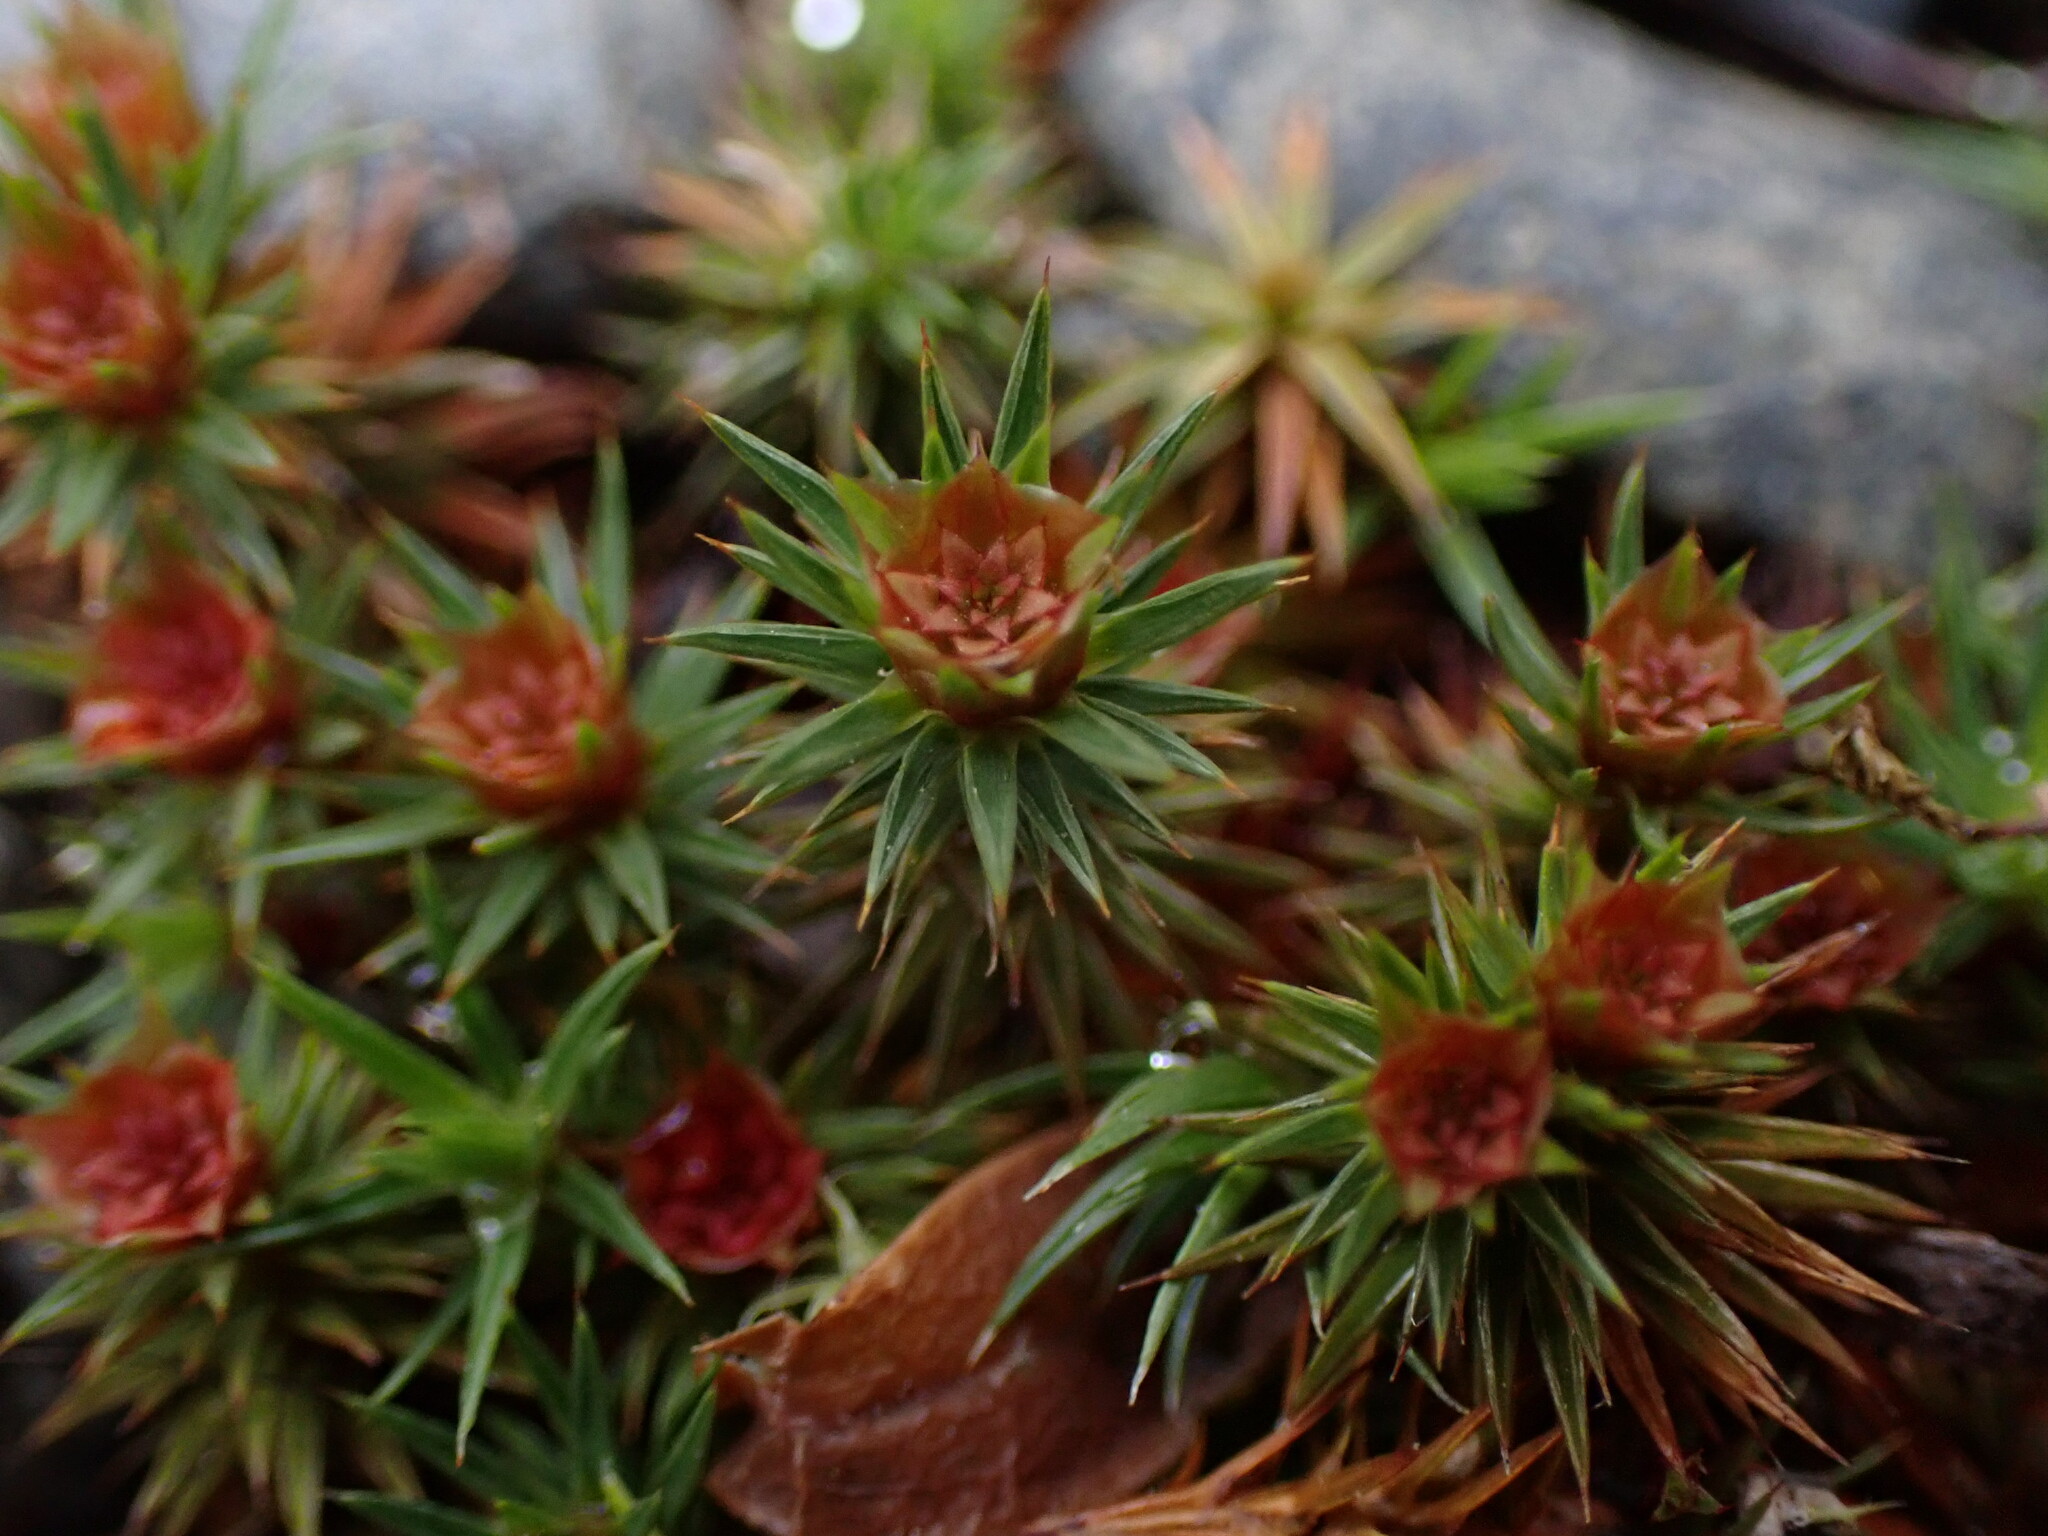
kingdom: Plantae
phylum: Bryophyta
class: Polytrichopsida
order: Polytrichales
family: Polytrichaceae
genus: Polytrichum
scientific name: Polytrichum juniperinum
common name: Juniper haircap moss
